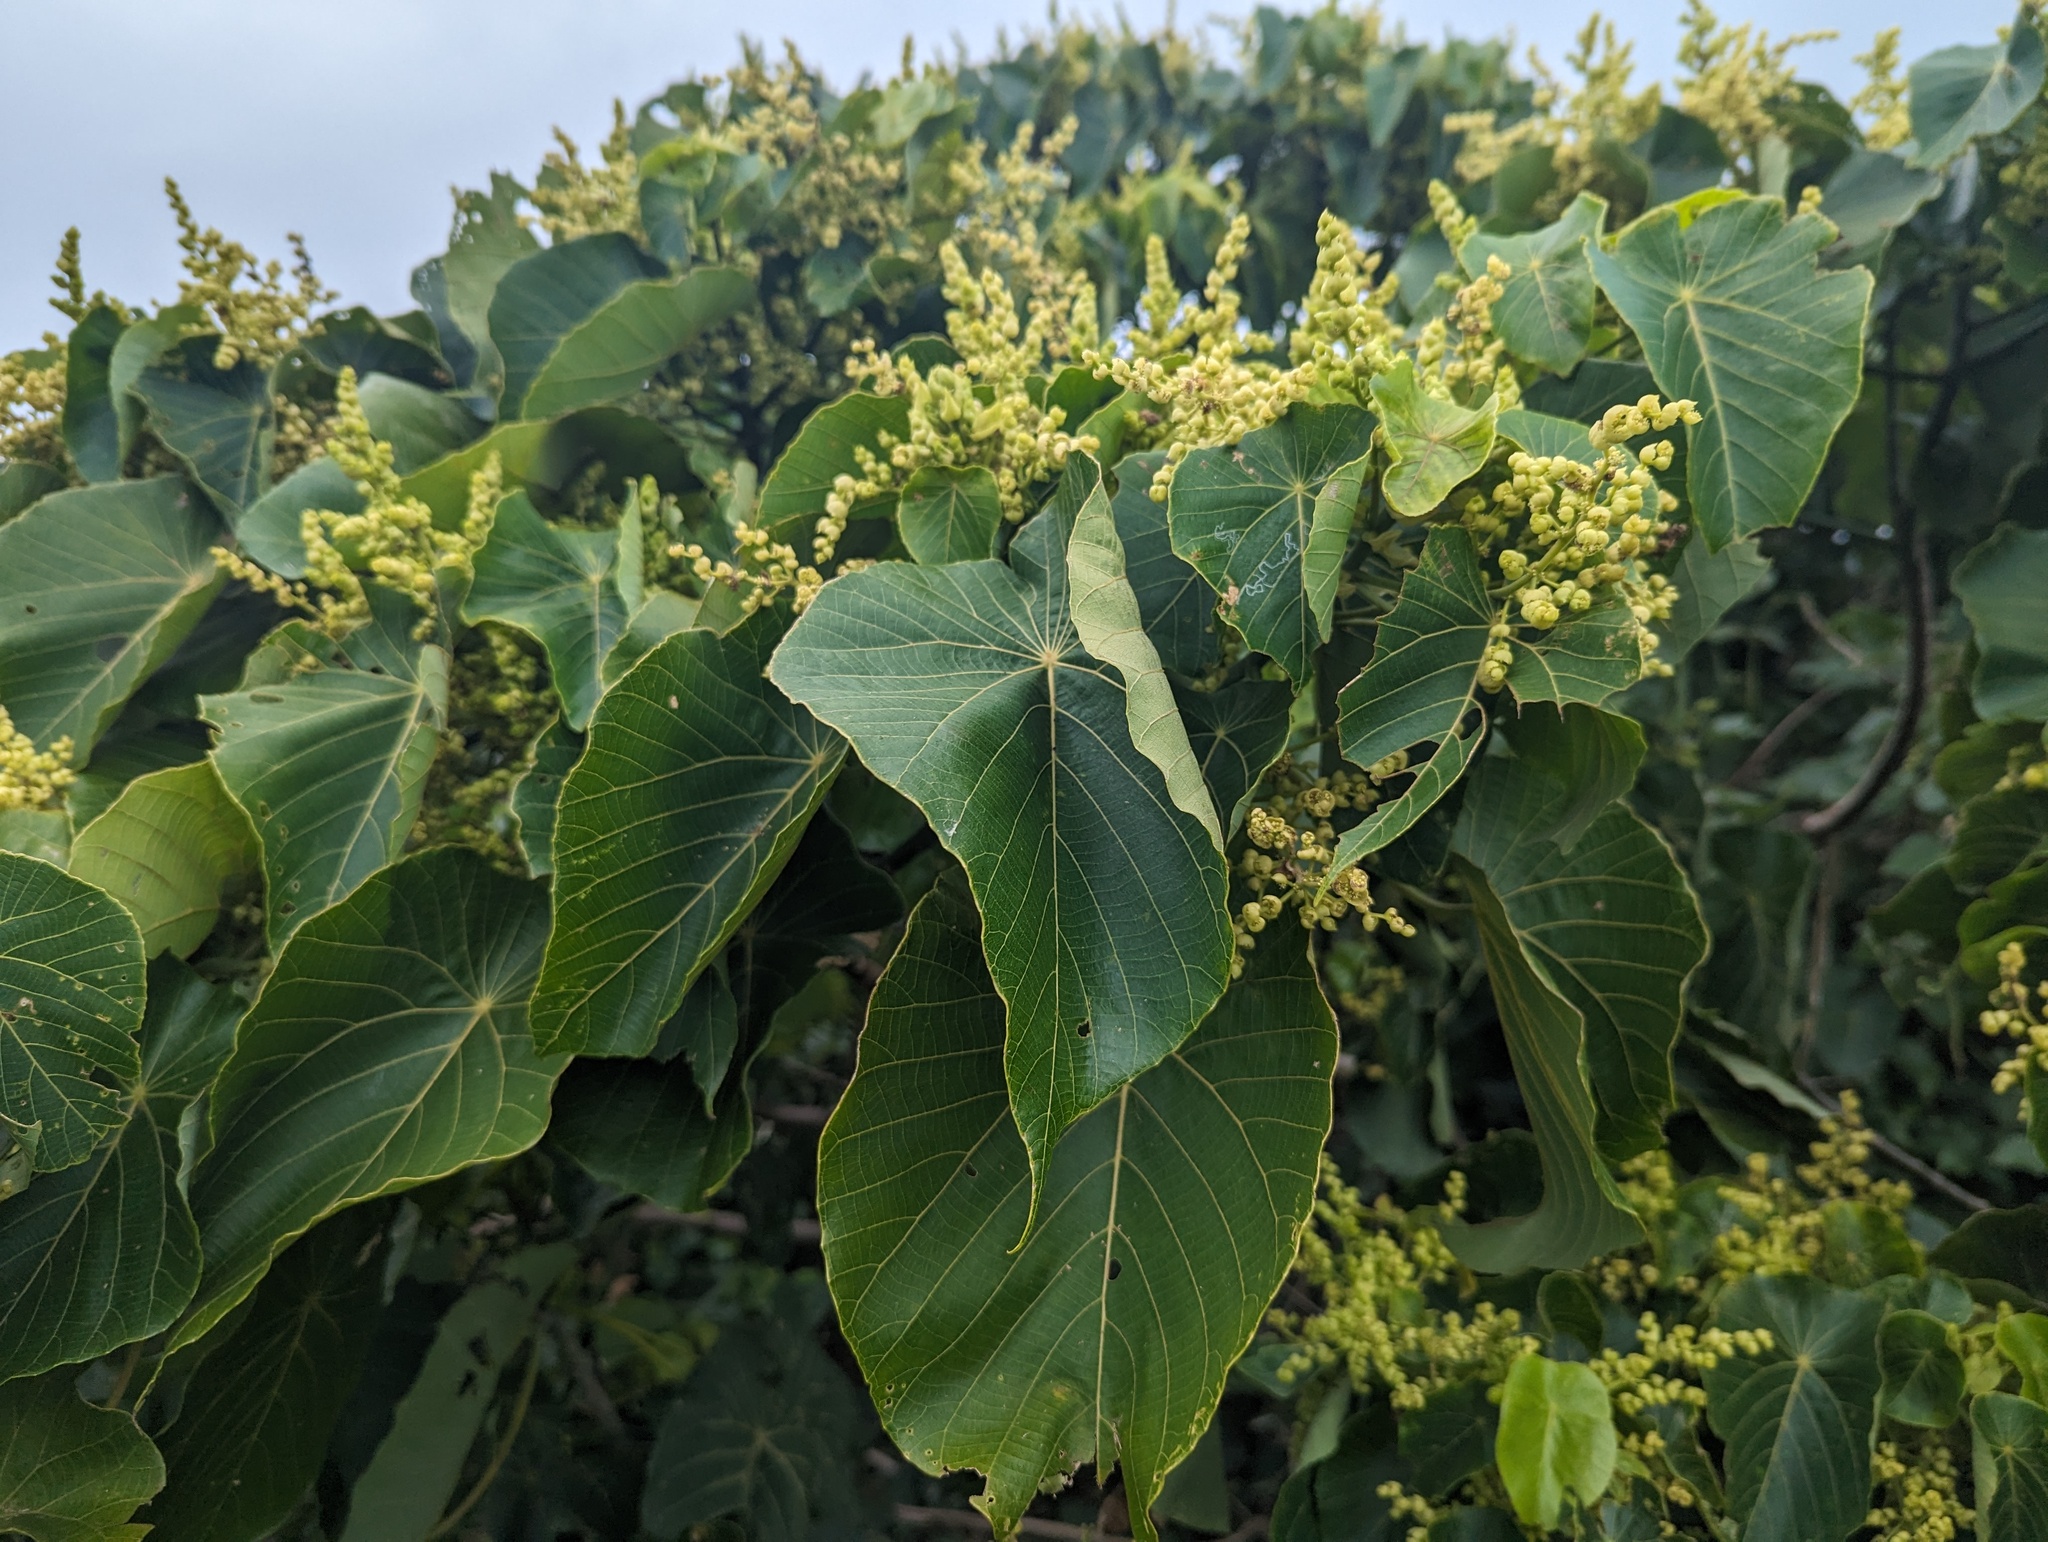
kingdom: Plantae
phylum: Tracheophyta
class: Magnoliopsida
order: Malpighiales
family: Euphorbiaceae
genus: Macaranga
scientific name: Macaranga tanarius
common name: Parasol leaf tree
